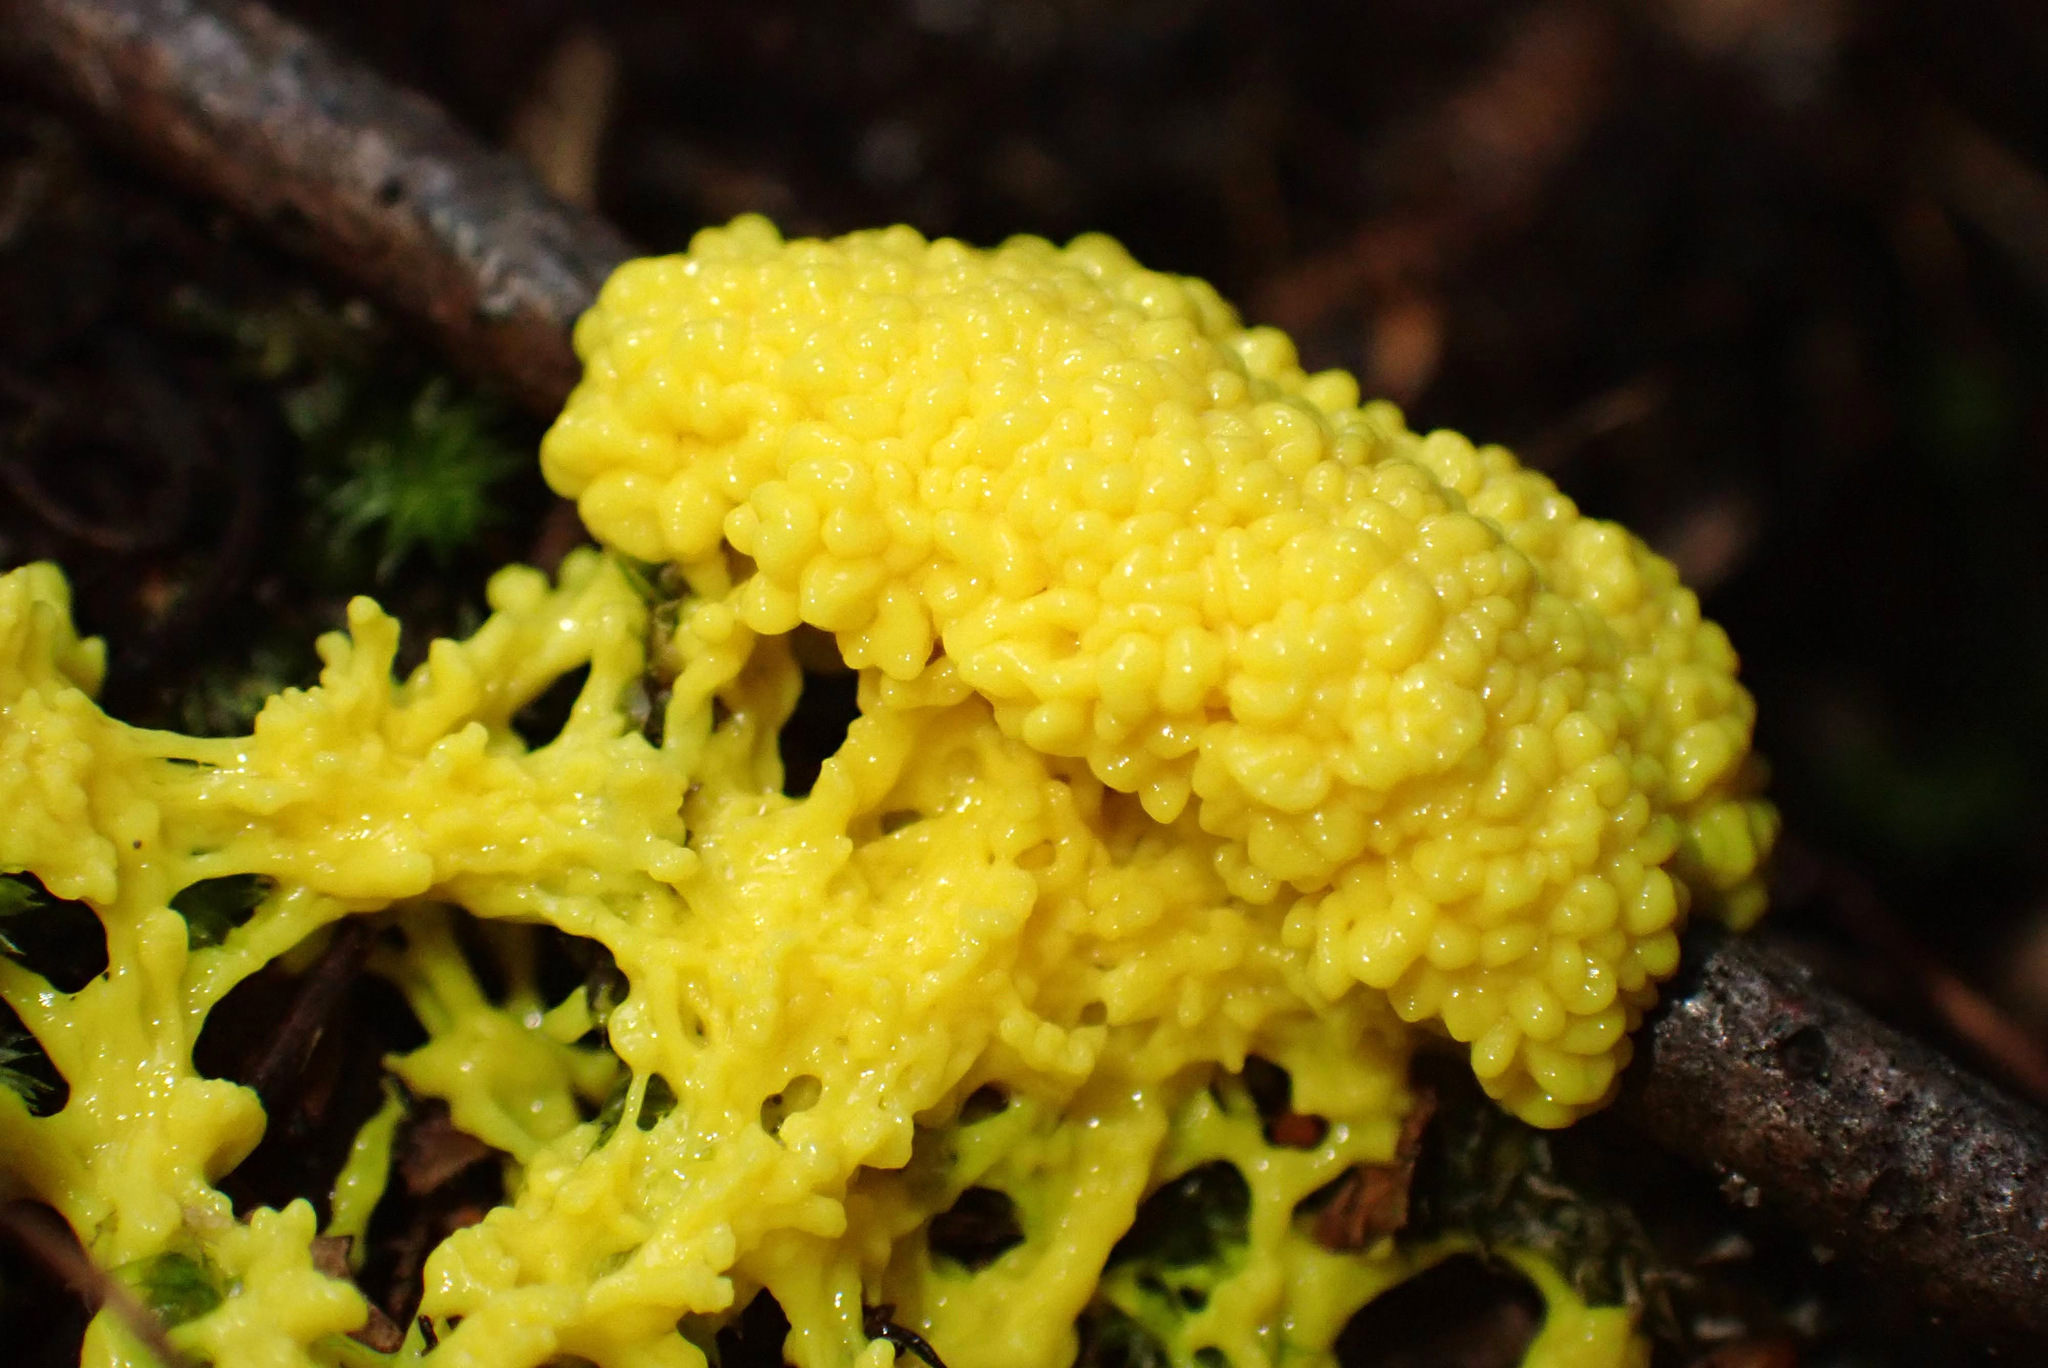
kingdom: Protozoa
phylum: Mycetozoa
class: Myxomycetes
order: Physarales
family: Physaraceae
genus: Fuligo
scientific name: Fuligo septica
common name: Dog vomit slime mold
